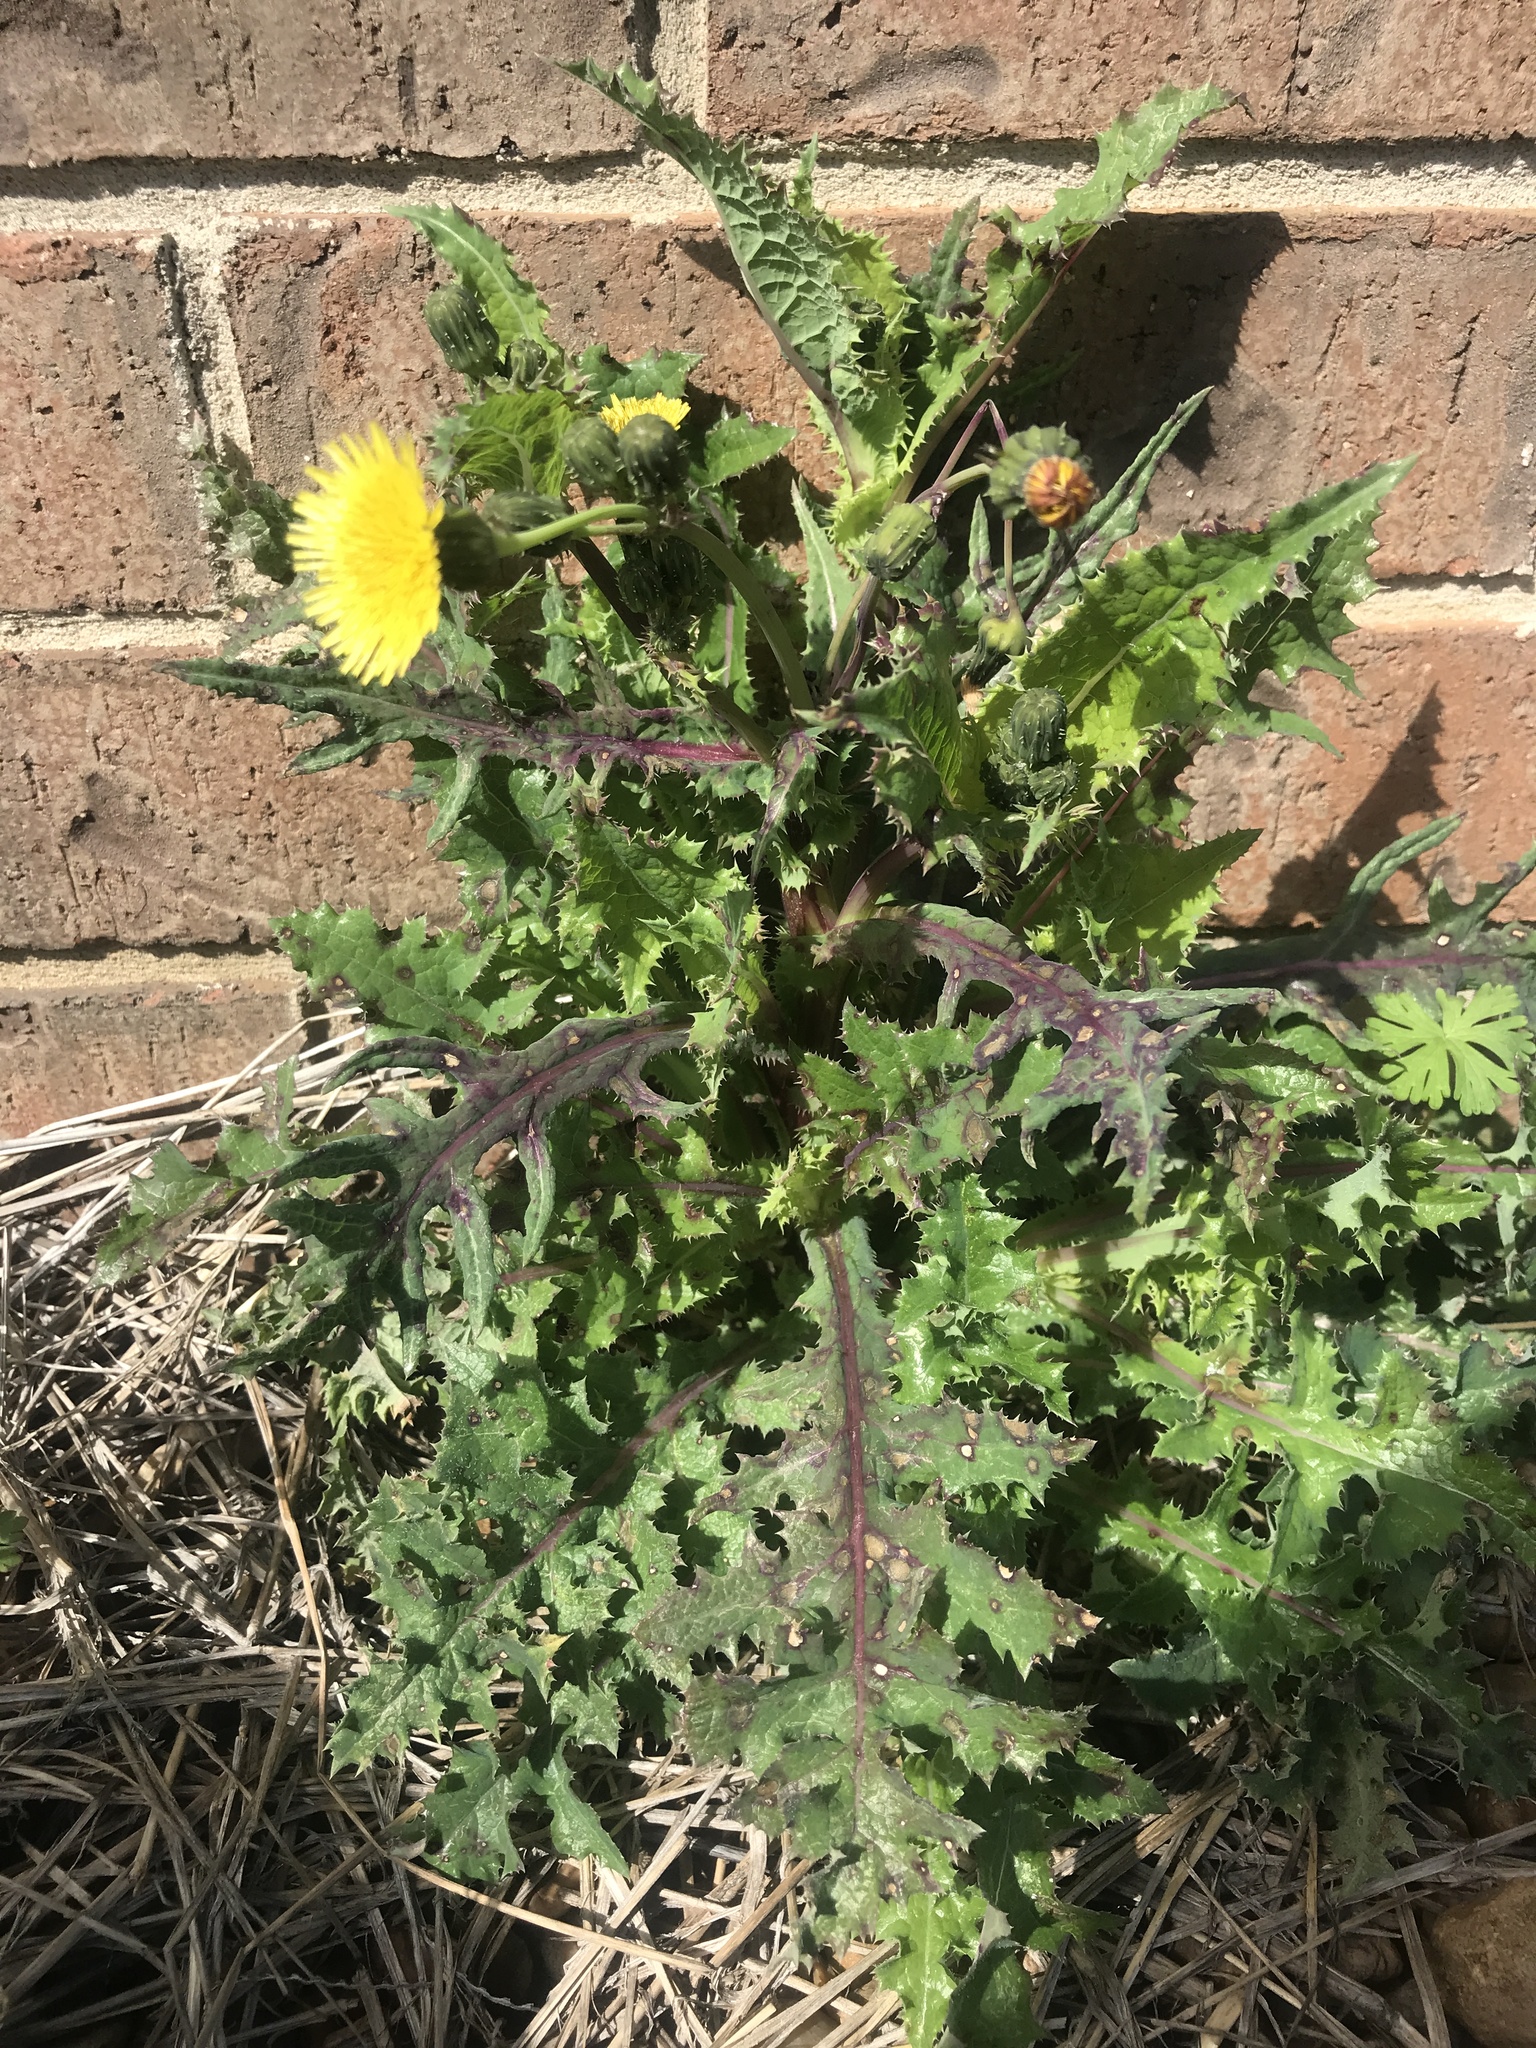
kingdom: Plantae
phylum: Tracheophyta
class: Magnoliopsida
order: Asterales
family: Asteraceae
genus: Sonchus
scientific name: Sonchus asper
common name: Prickly sow-thistle
